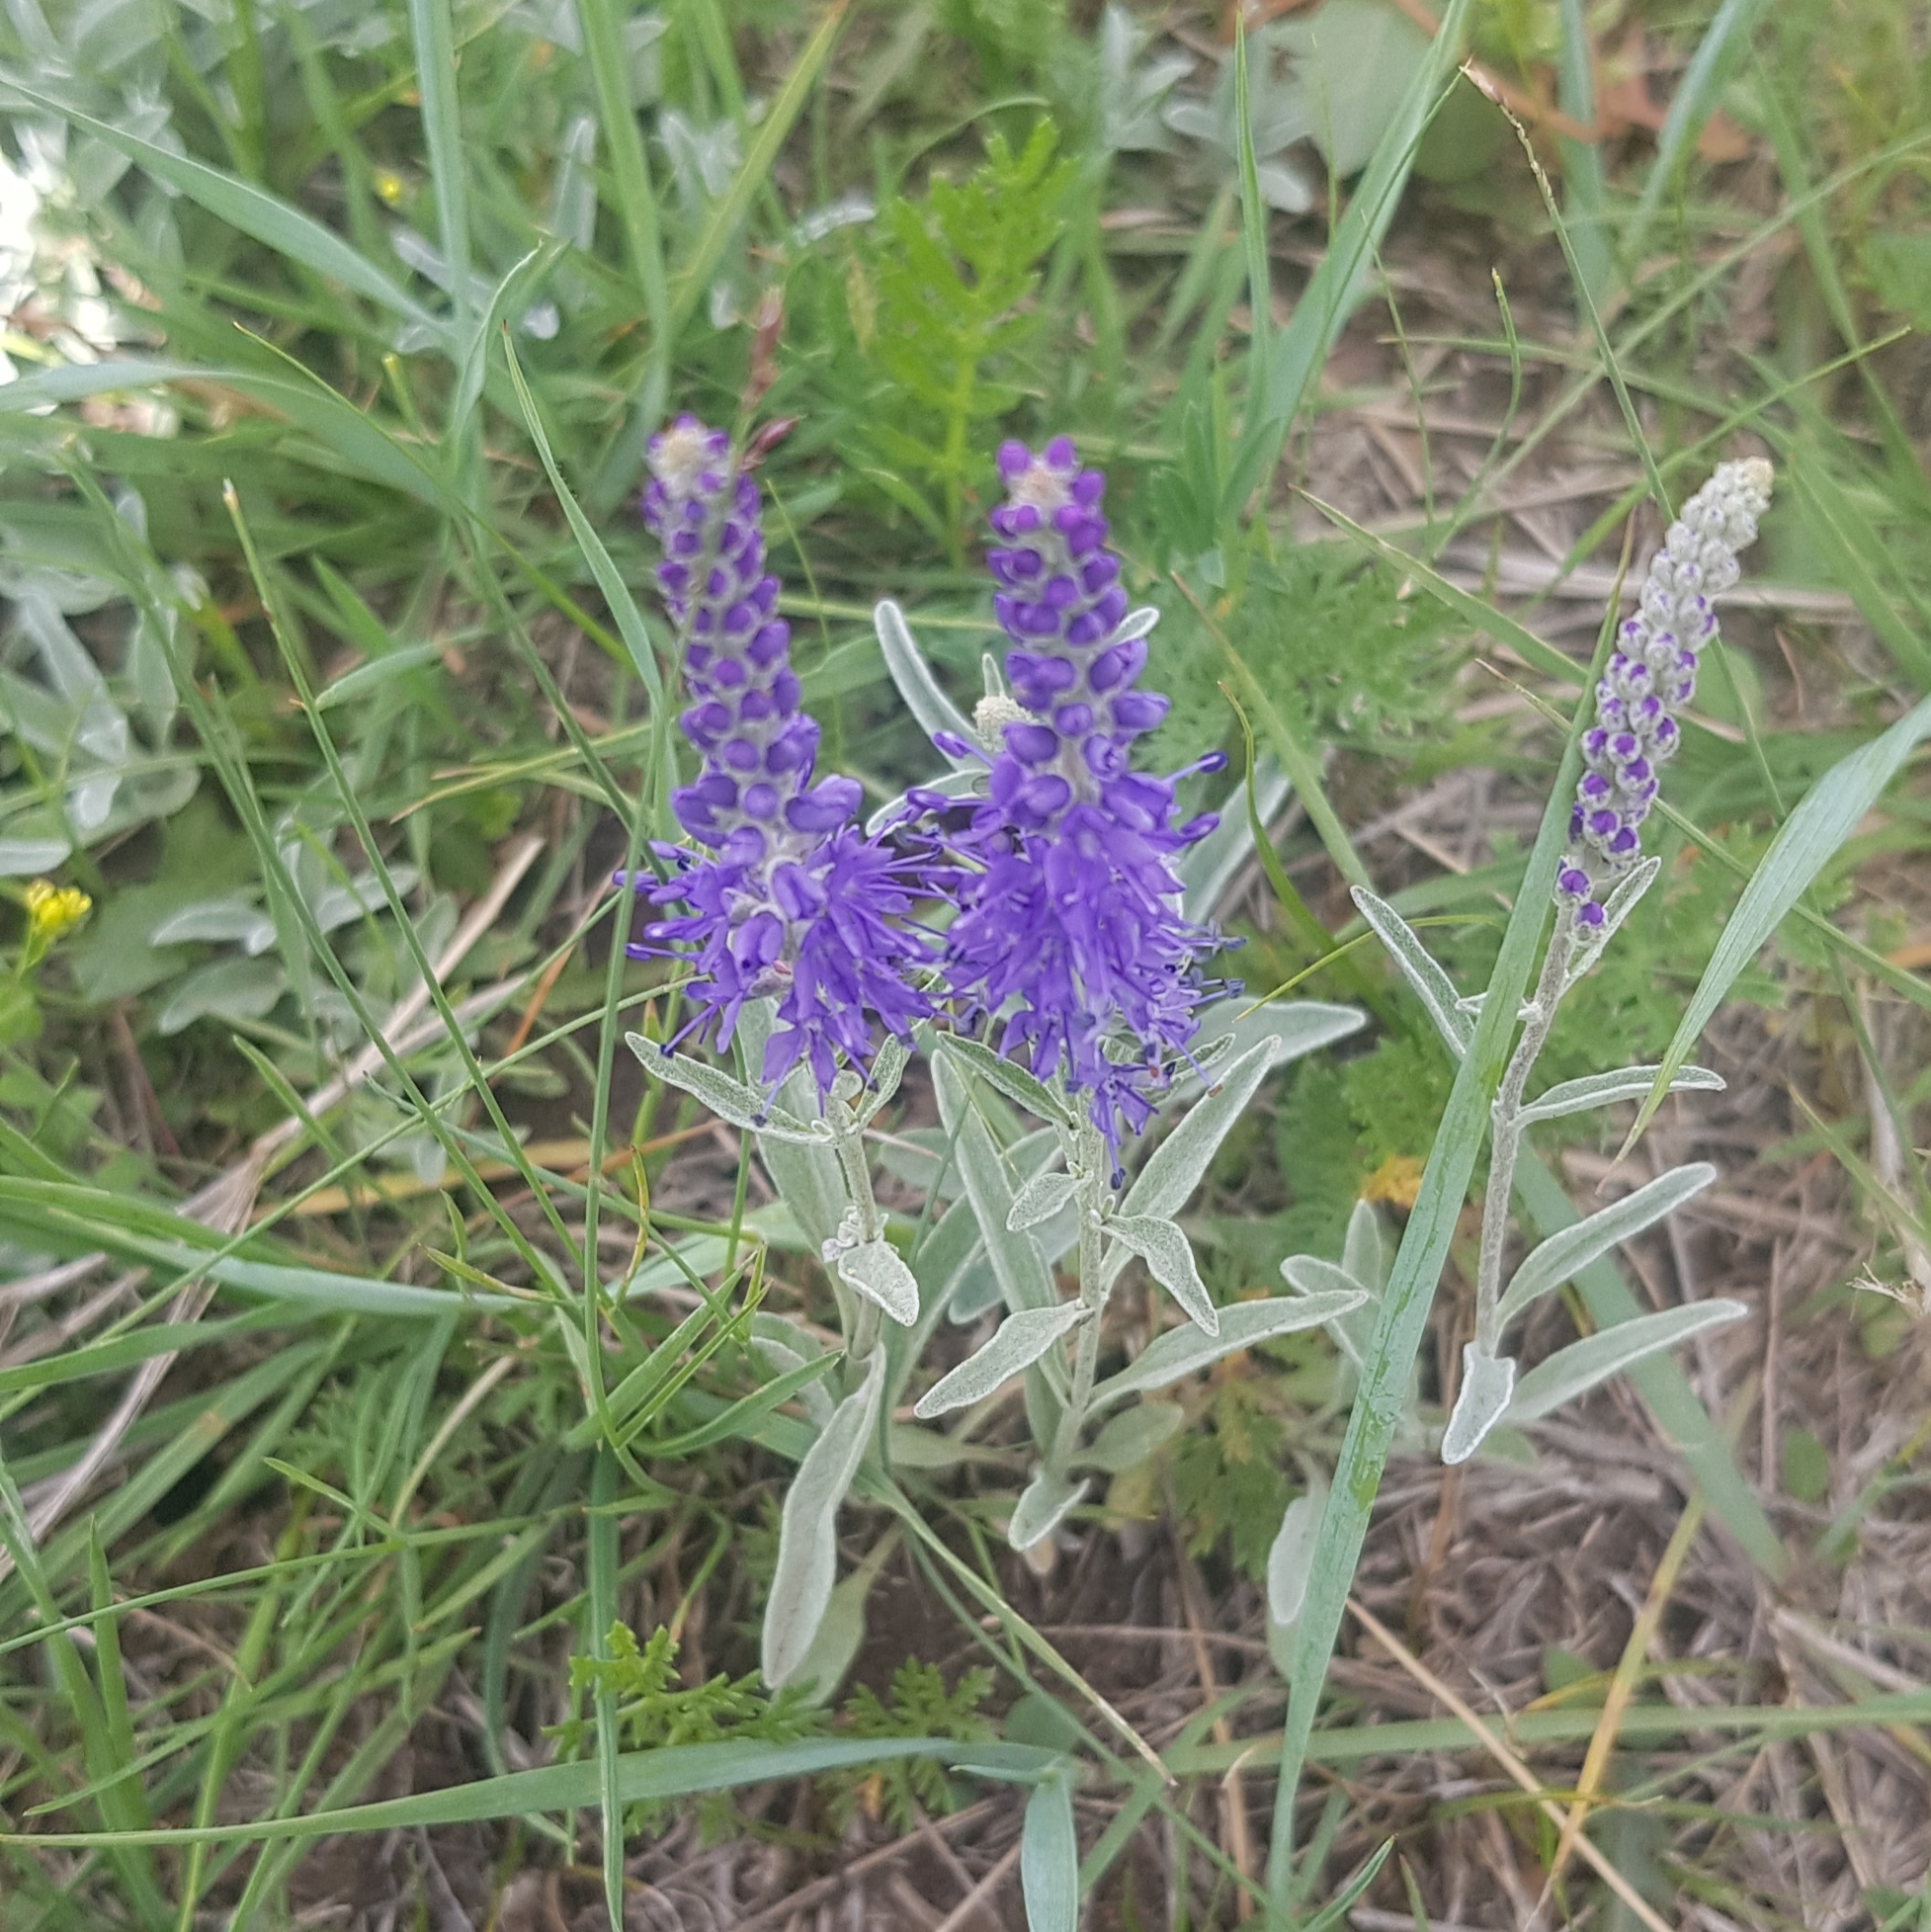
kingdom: Plantae
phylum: Tracheophyta
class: Magnoliopsida
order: Lamiales
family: Plantaginaceae
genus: Veronica
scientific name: Veronica incana
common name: Silver speedwell
